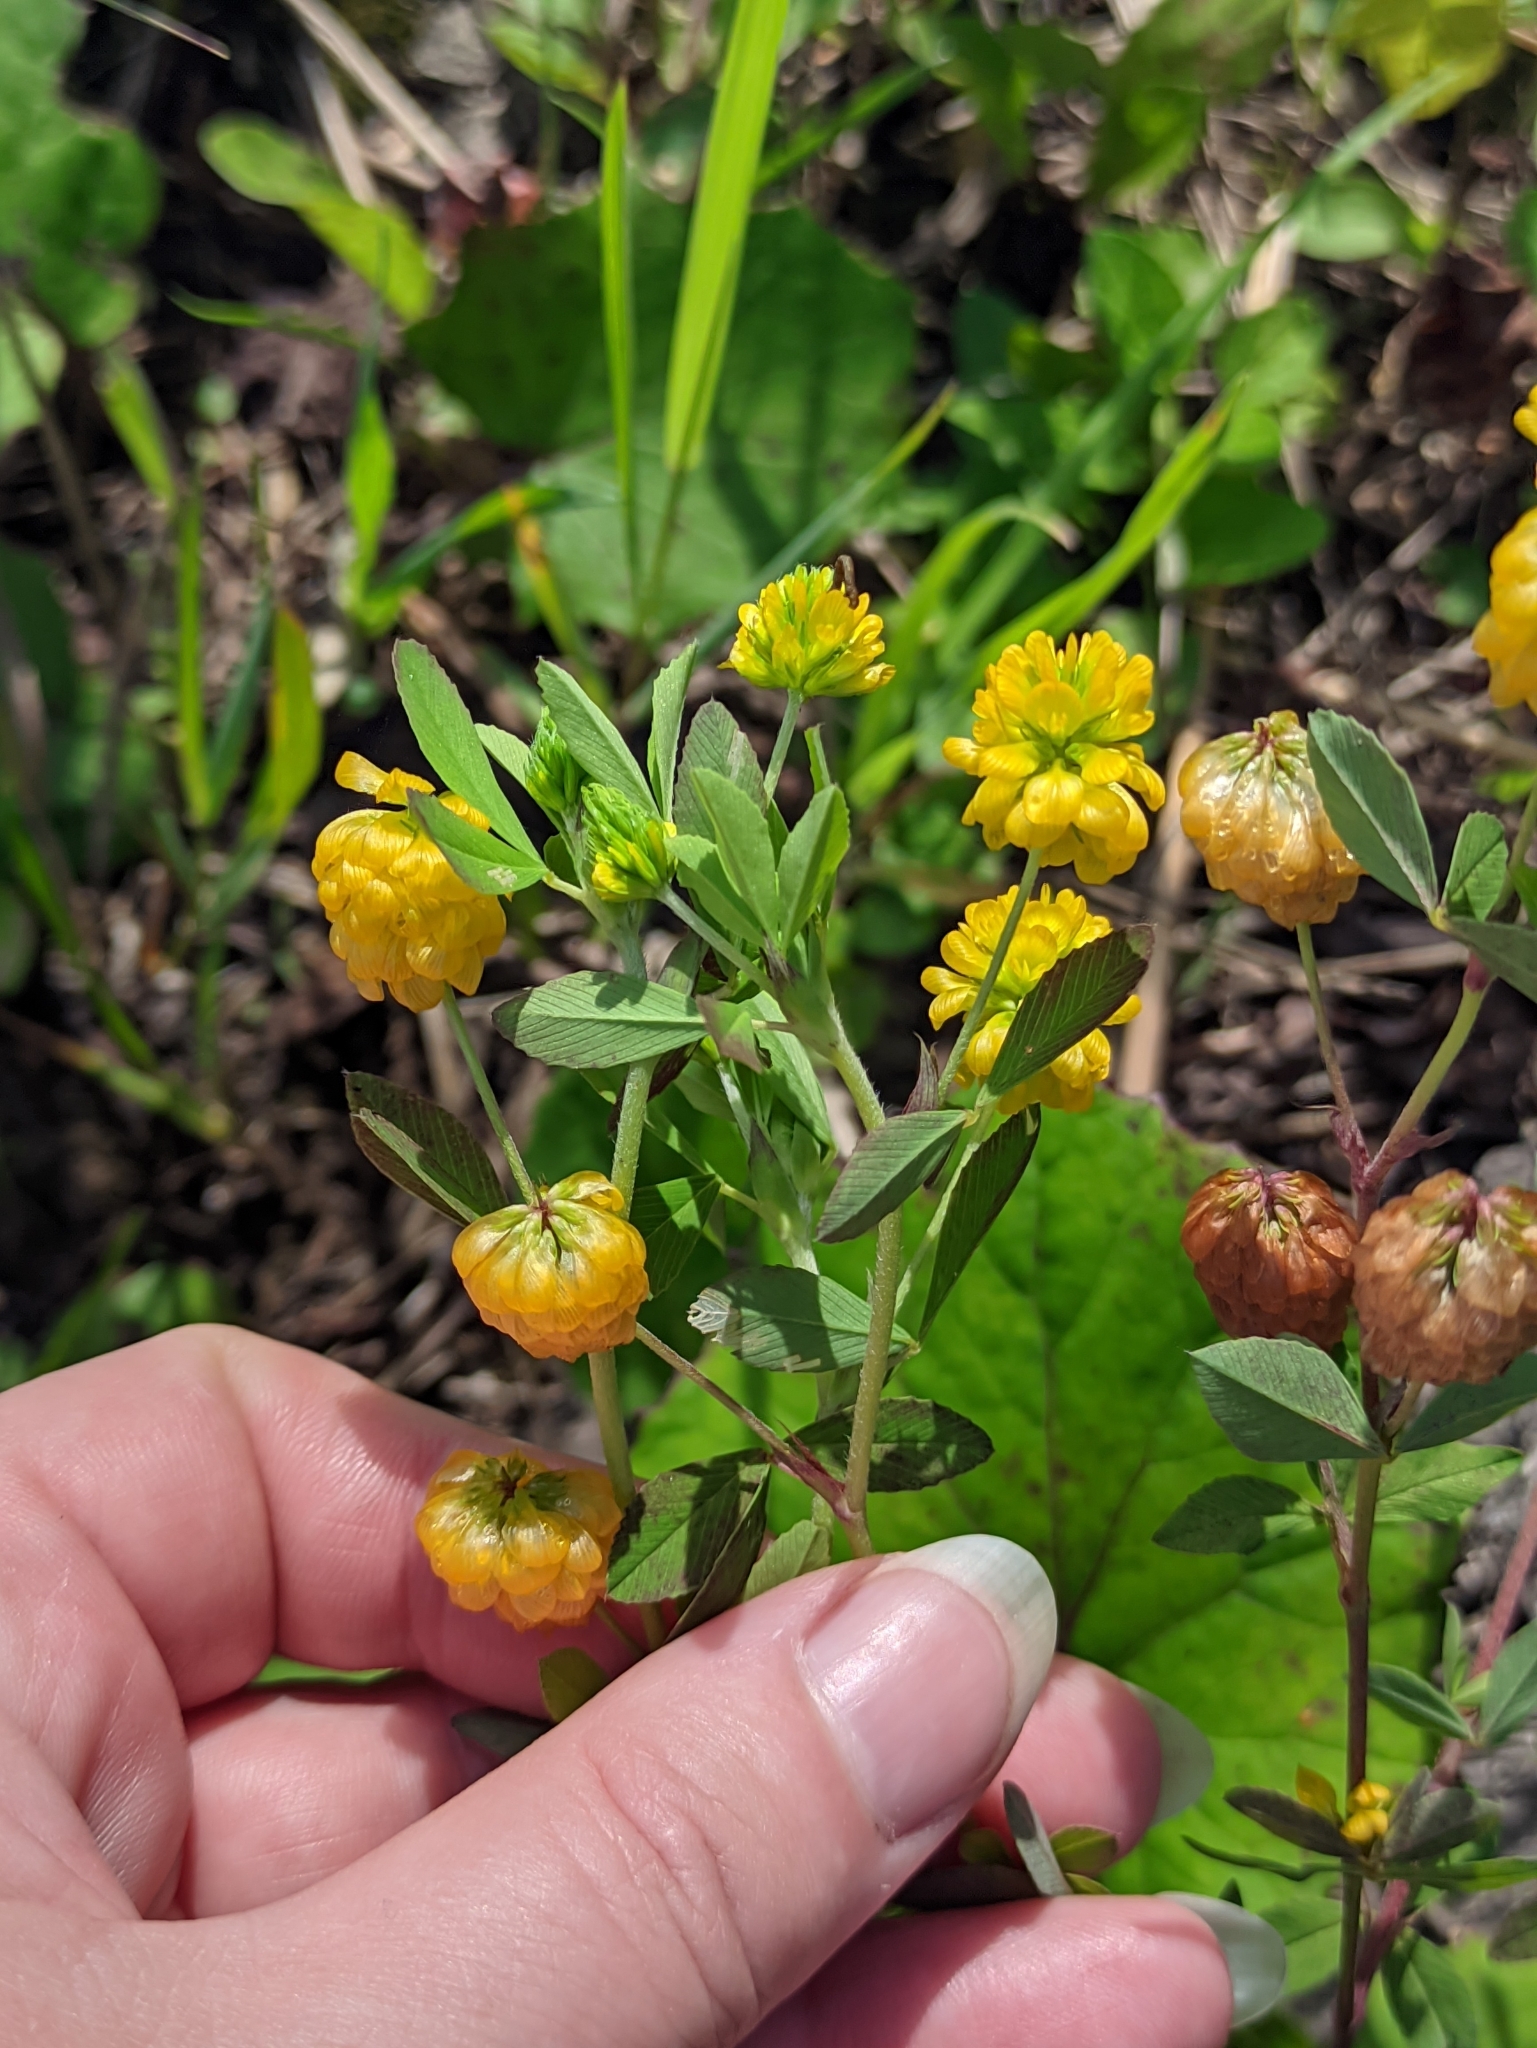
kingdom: Plantae
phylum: Tracheophyta
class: Magnoliopsida
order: Fabales
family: Fabaceae
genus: Trifolium
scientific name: Trifolium aureum
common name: Golden clover
